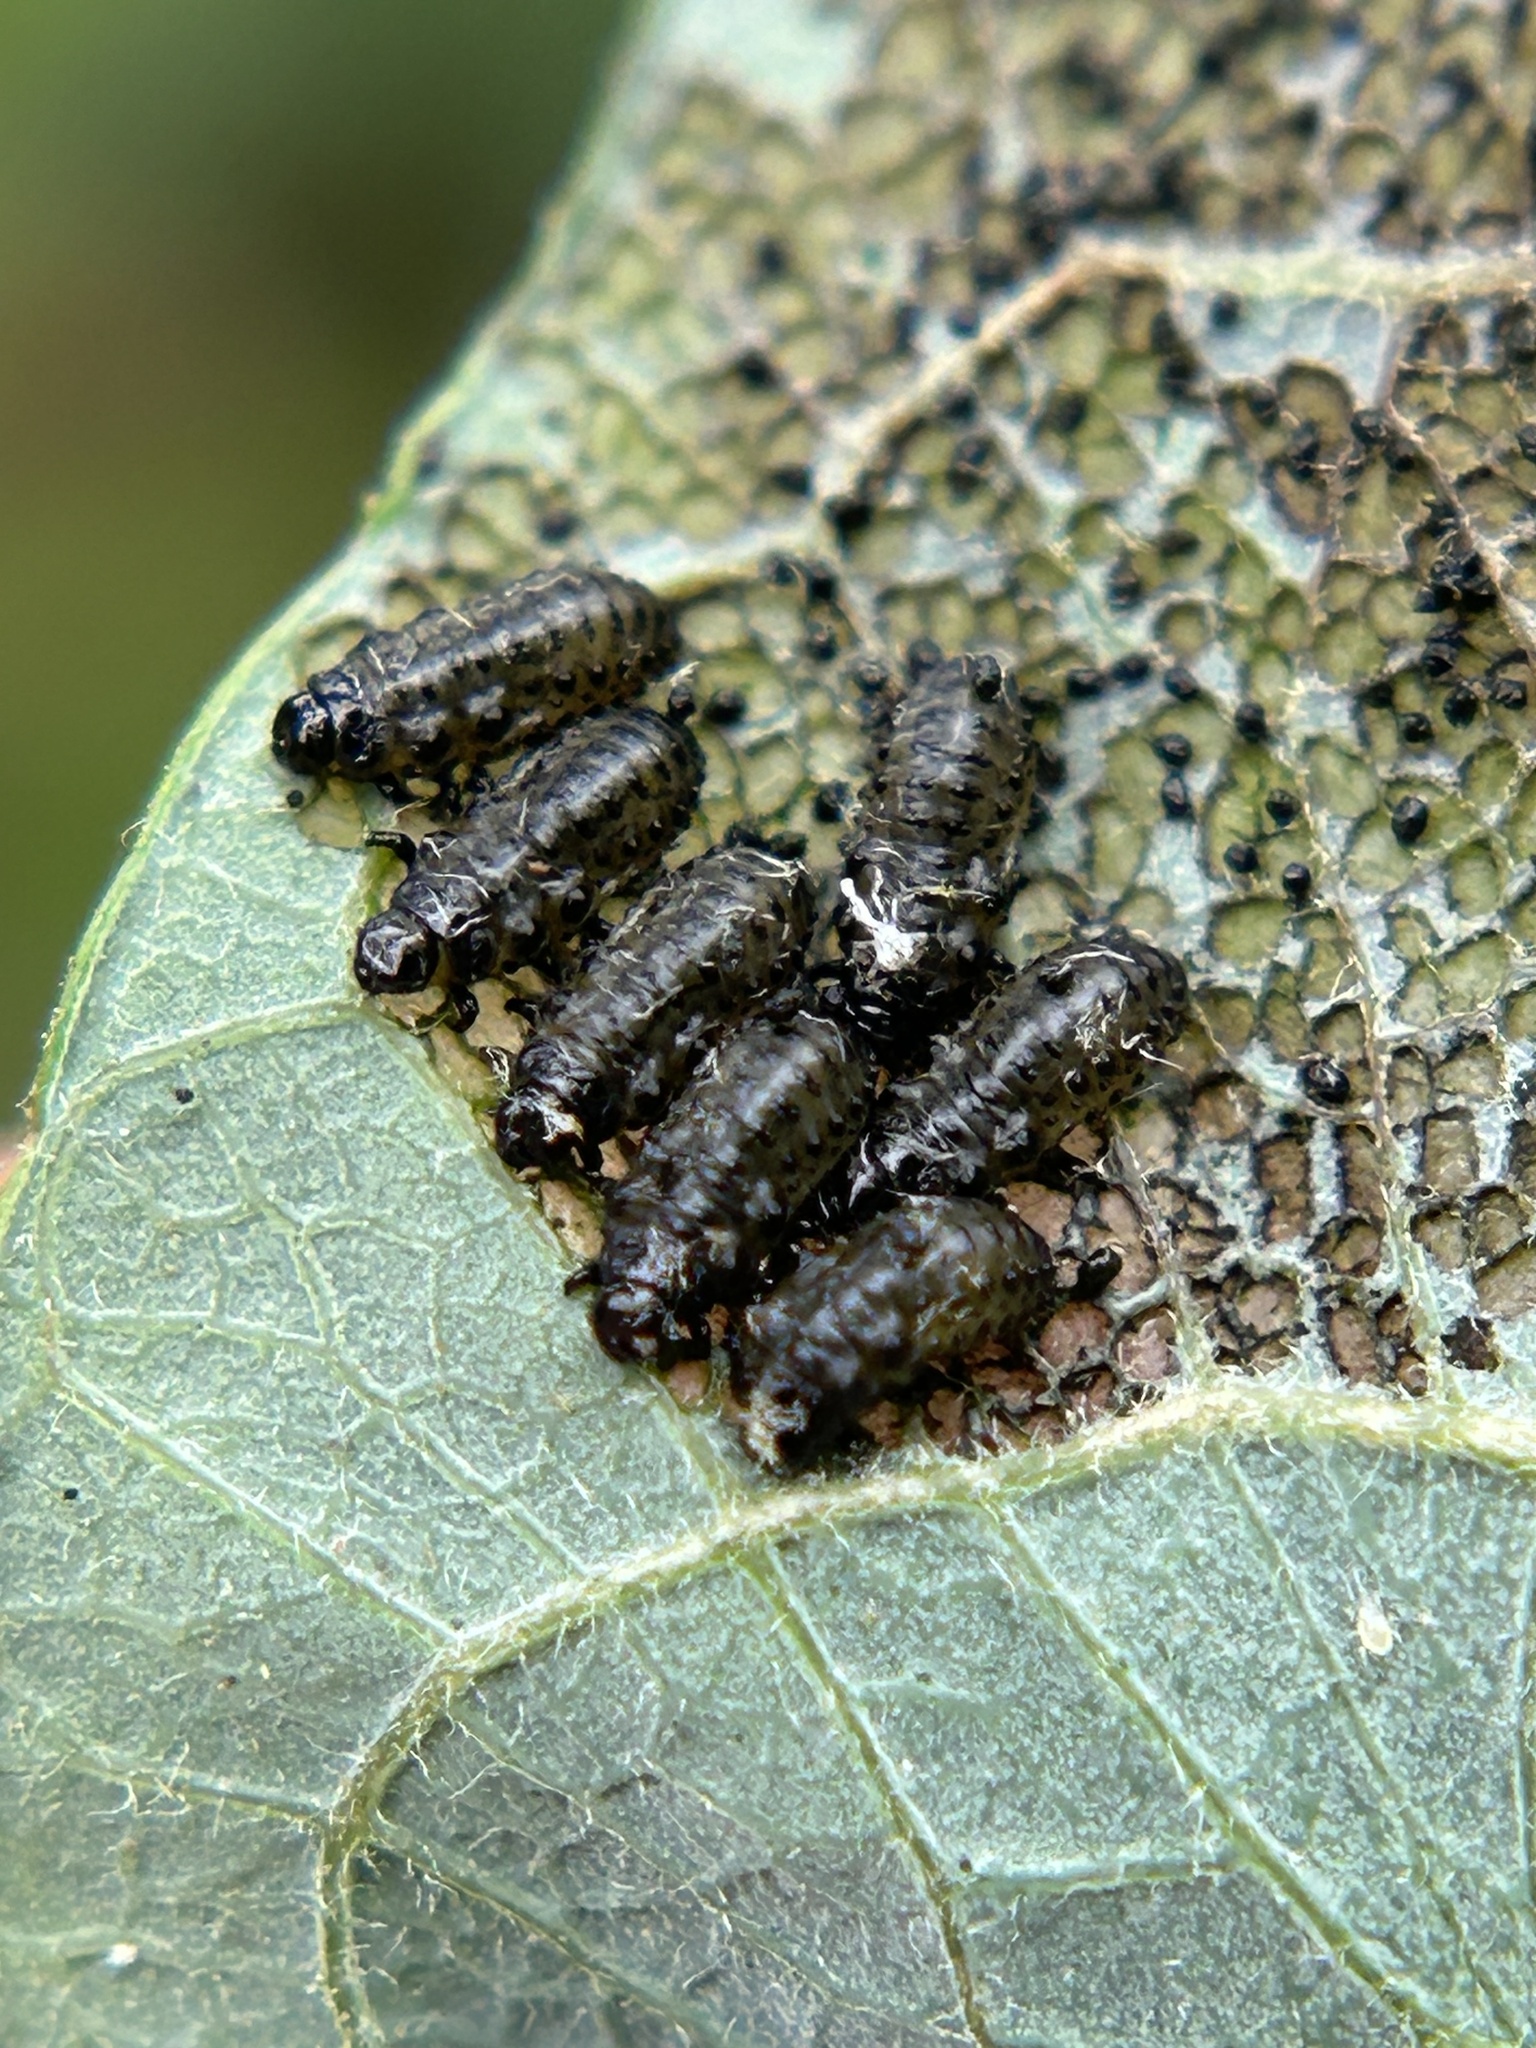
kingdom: Animalia
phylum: Arthropoda
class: Insecta
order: Coleoptera
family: Chrysomelidae
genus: Plagiodera
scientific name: Plagiodera californica
